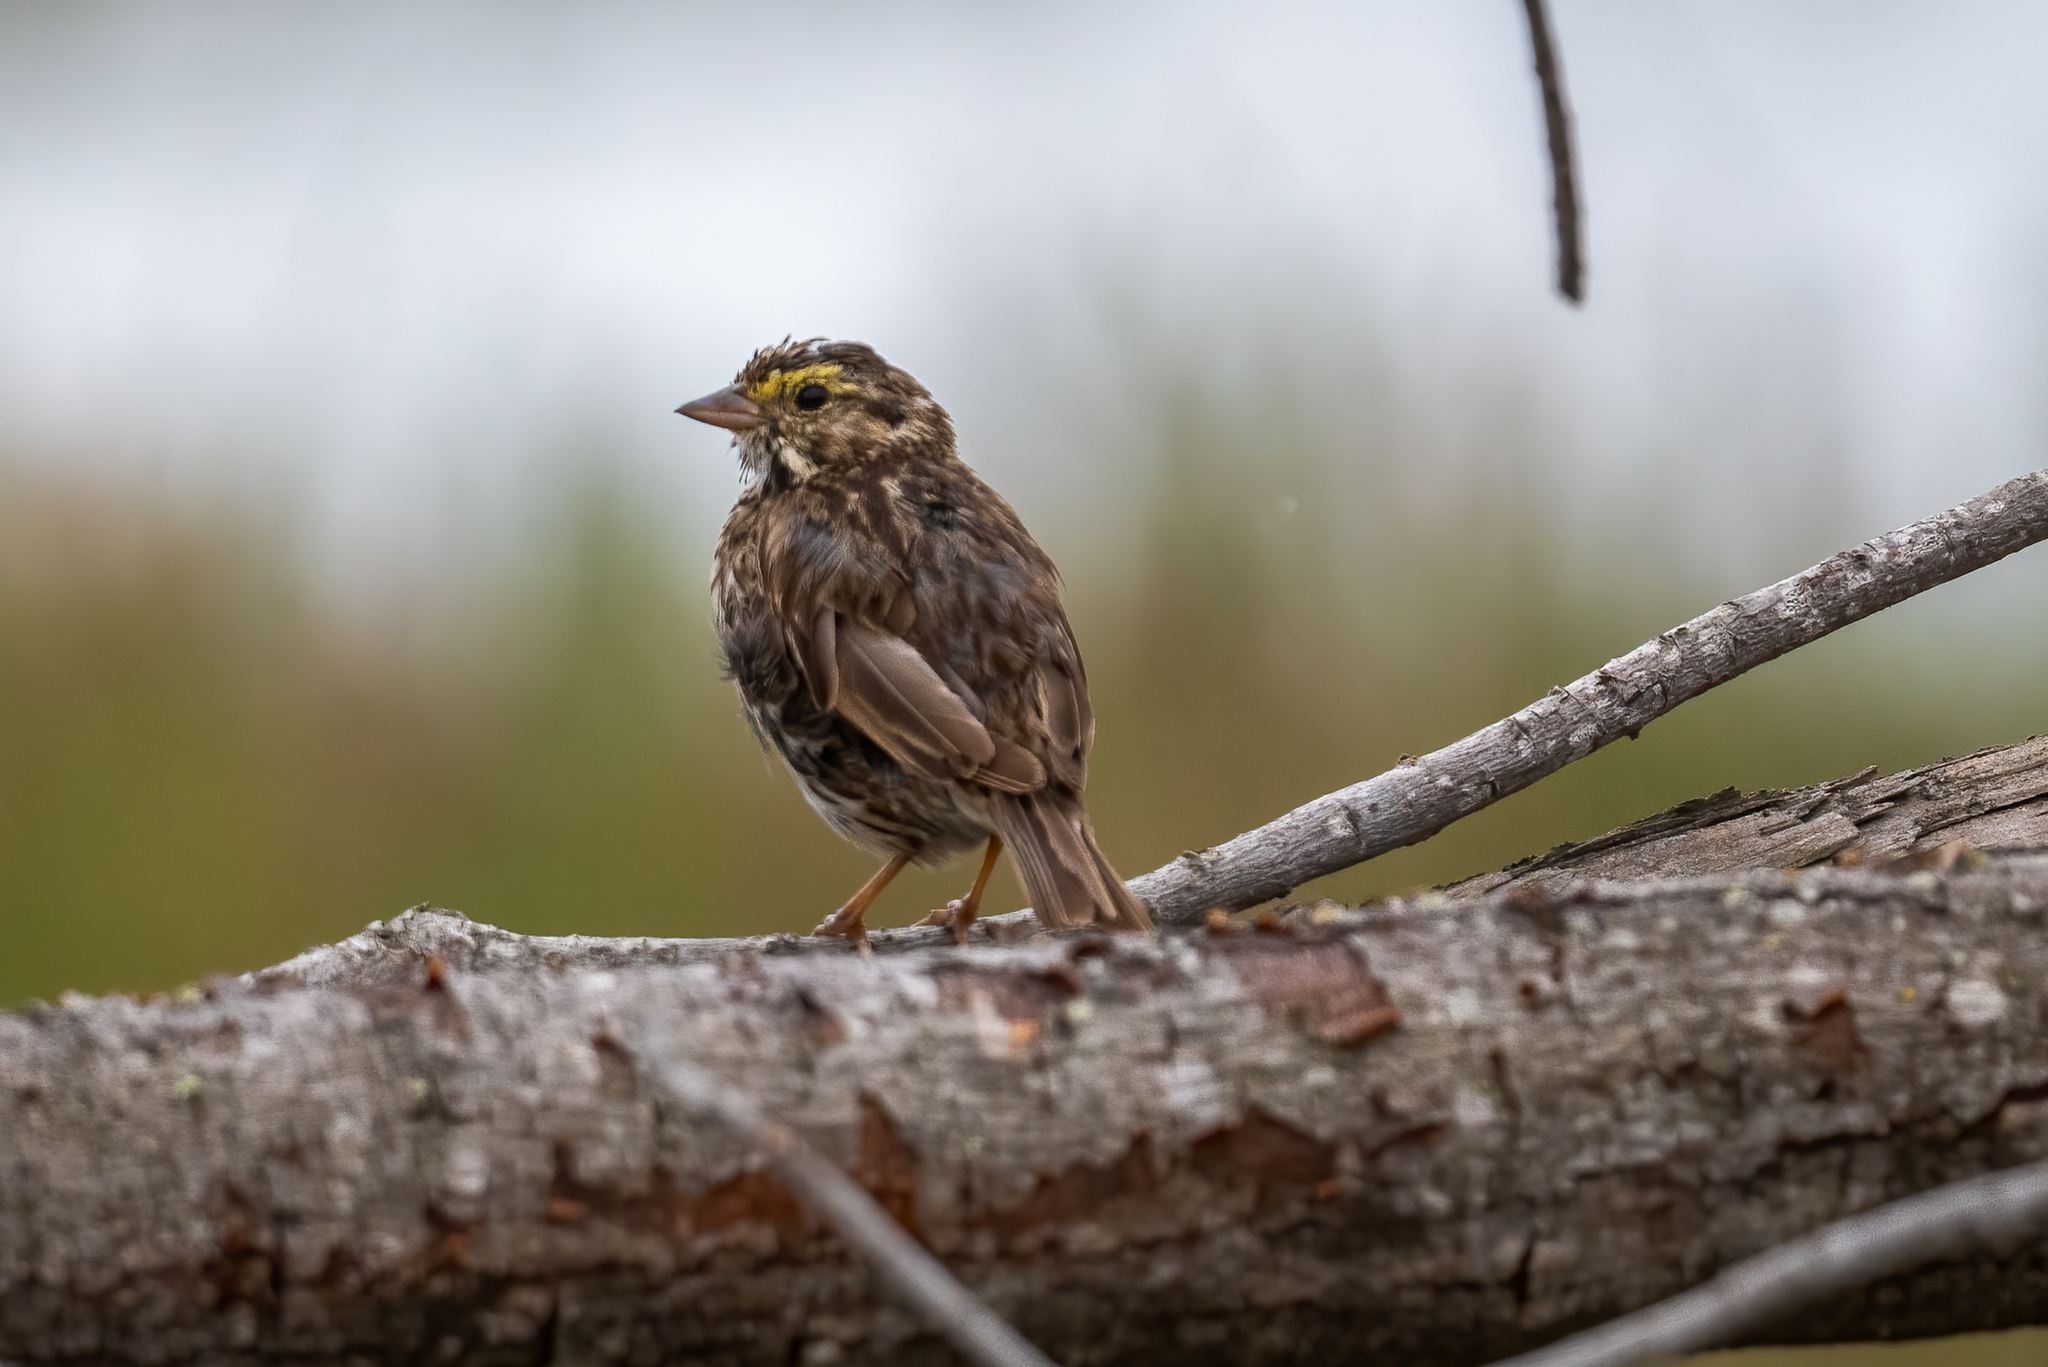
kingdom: Animalia
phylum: Chordata
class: Aves
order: Passeriformes
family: Passerellidae
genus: Passerculus
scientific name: Passerculus sandwichensis
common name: Savannah sparrow
